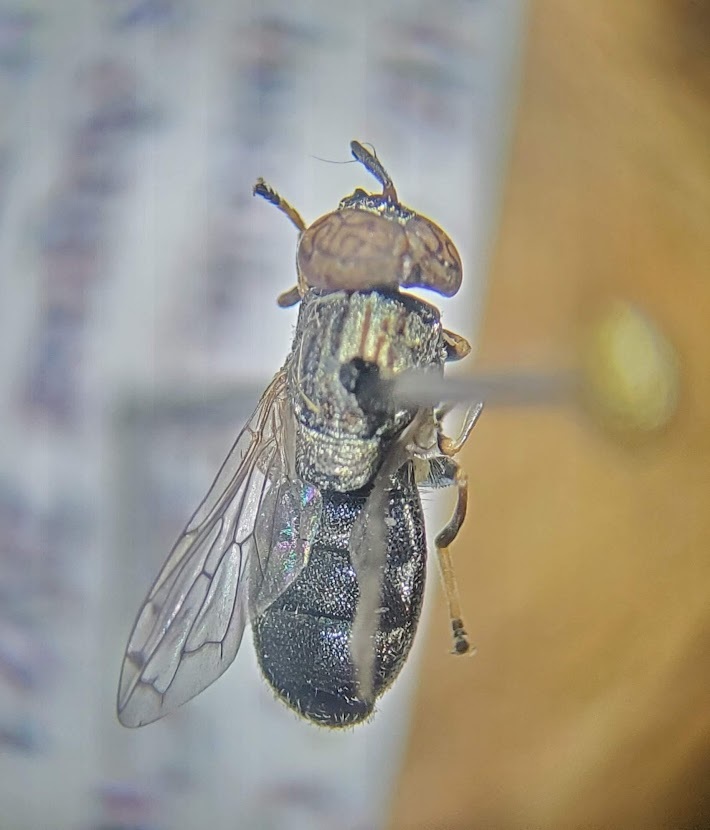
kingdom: Animalia
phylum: Arthropoda
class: Insecta
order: Diptera
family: Syrphidae
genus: Orthonevra
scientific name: Orthonevra nitida
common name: Wavy mucksucker
